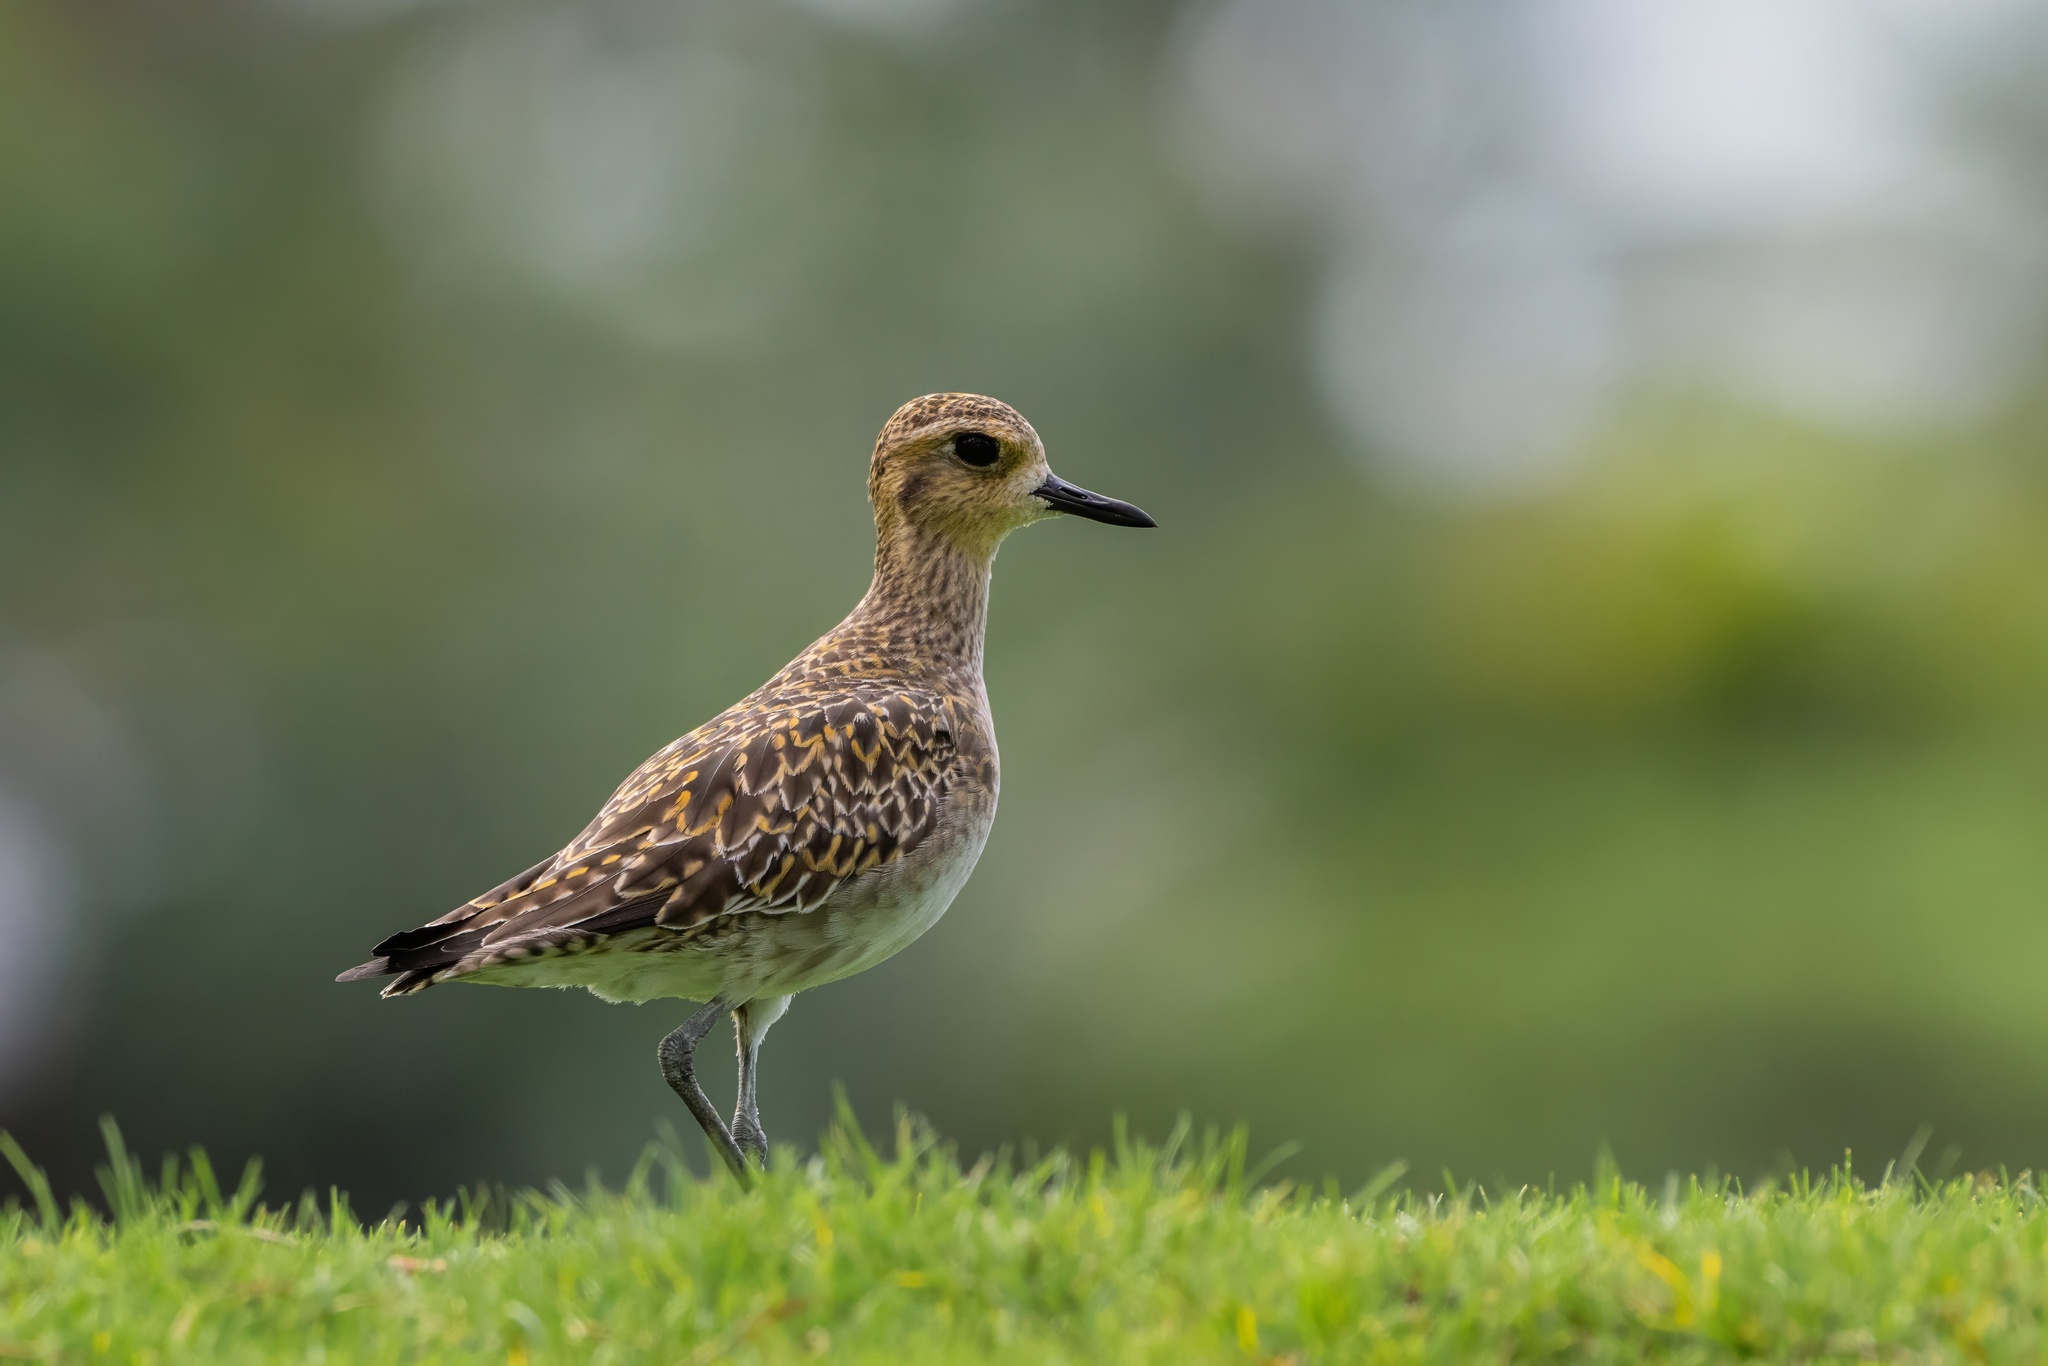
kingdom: Animalia
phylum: Chordata
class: Aves
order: Charadriiformes
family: Charadriidae
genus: Pluvialis
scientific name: Pluvialis fulva
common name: Pacific golden plover
